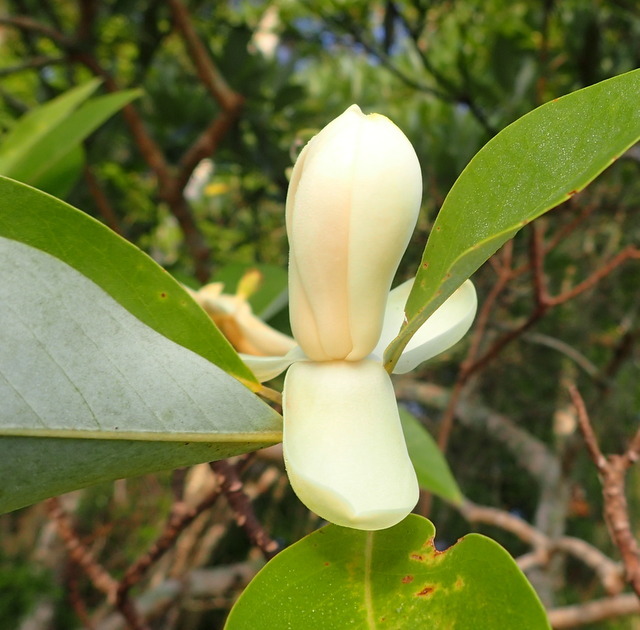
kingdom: Plantae
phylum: Tracheophyta
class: Magnoliopsida
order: Magnoliales
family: Magnoliaceae
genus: Magnolia
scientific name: Magnolia virginiana
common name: Swamp bay
